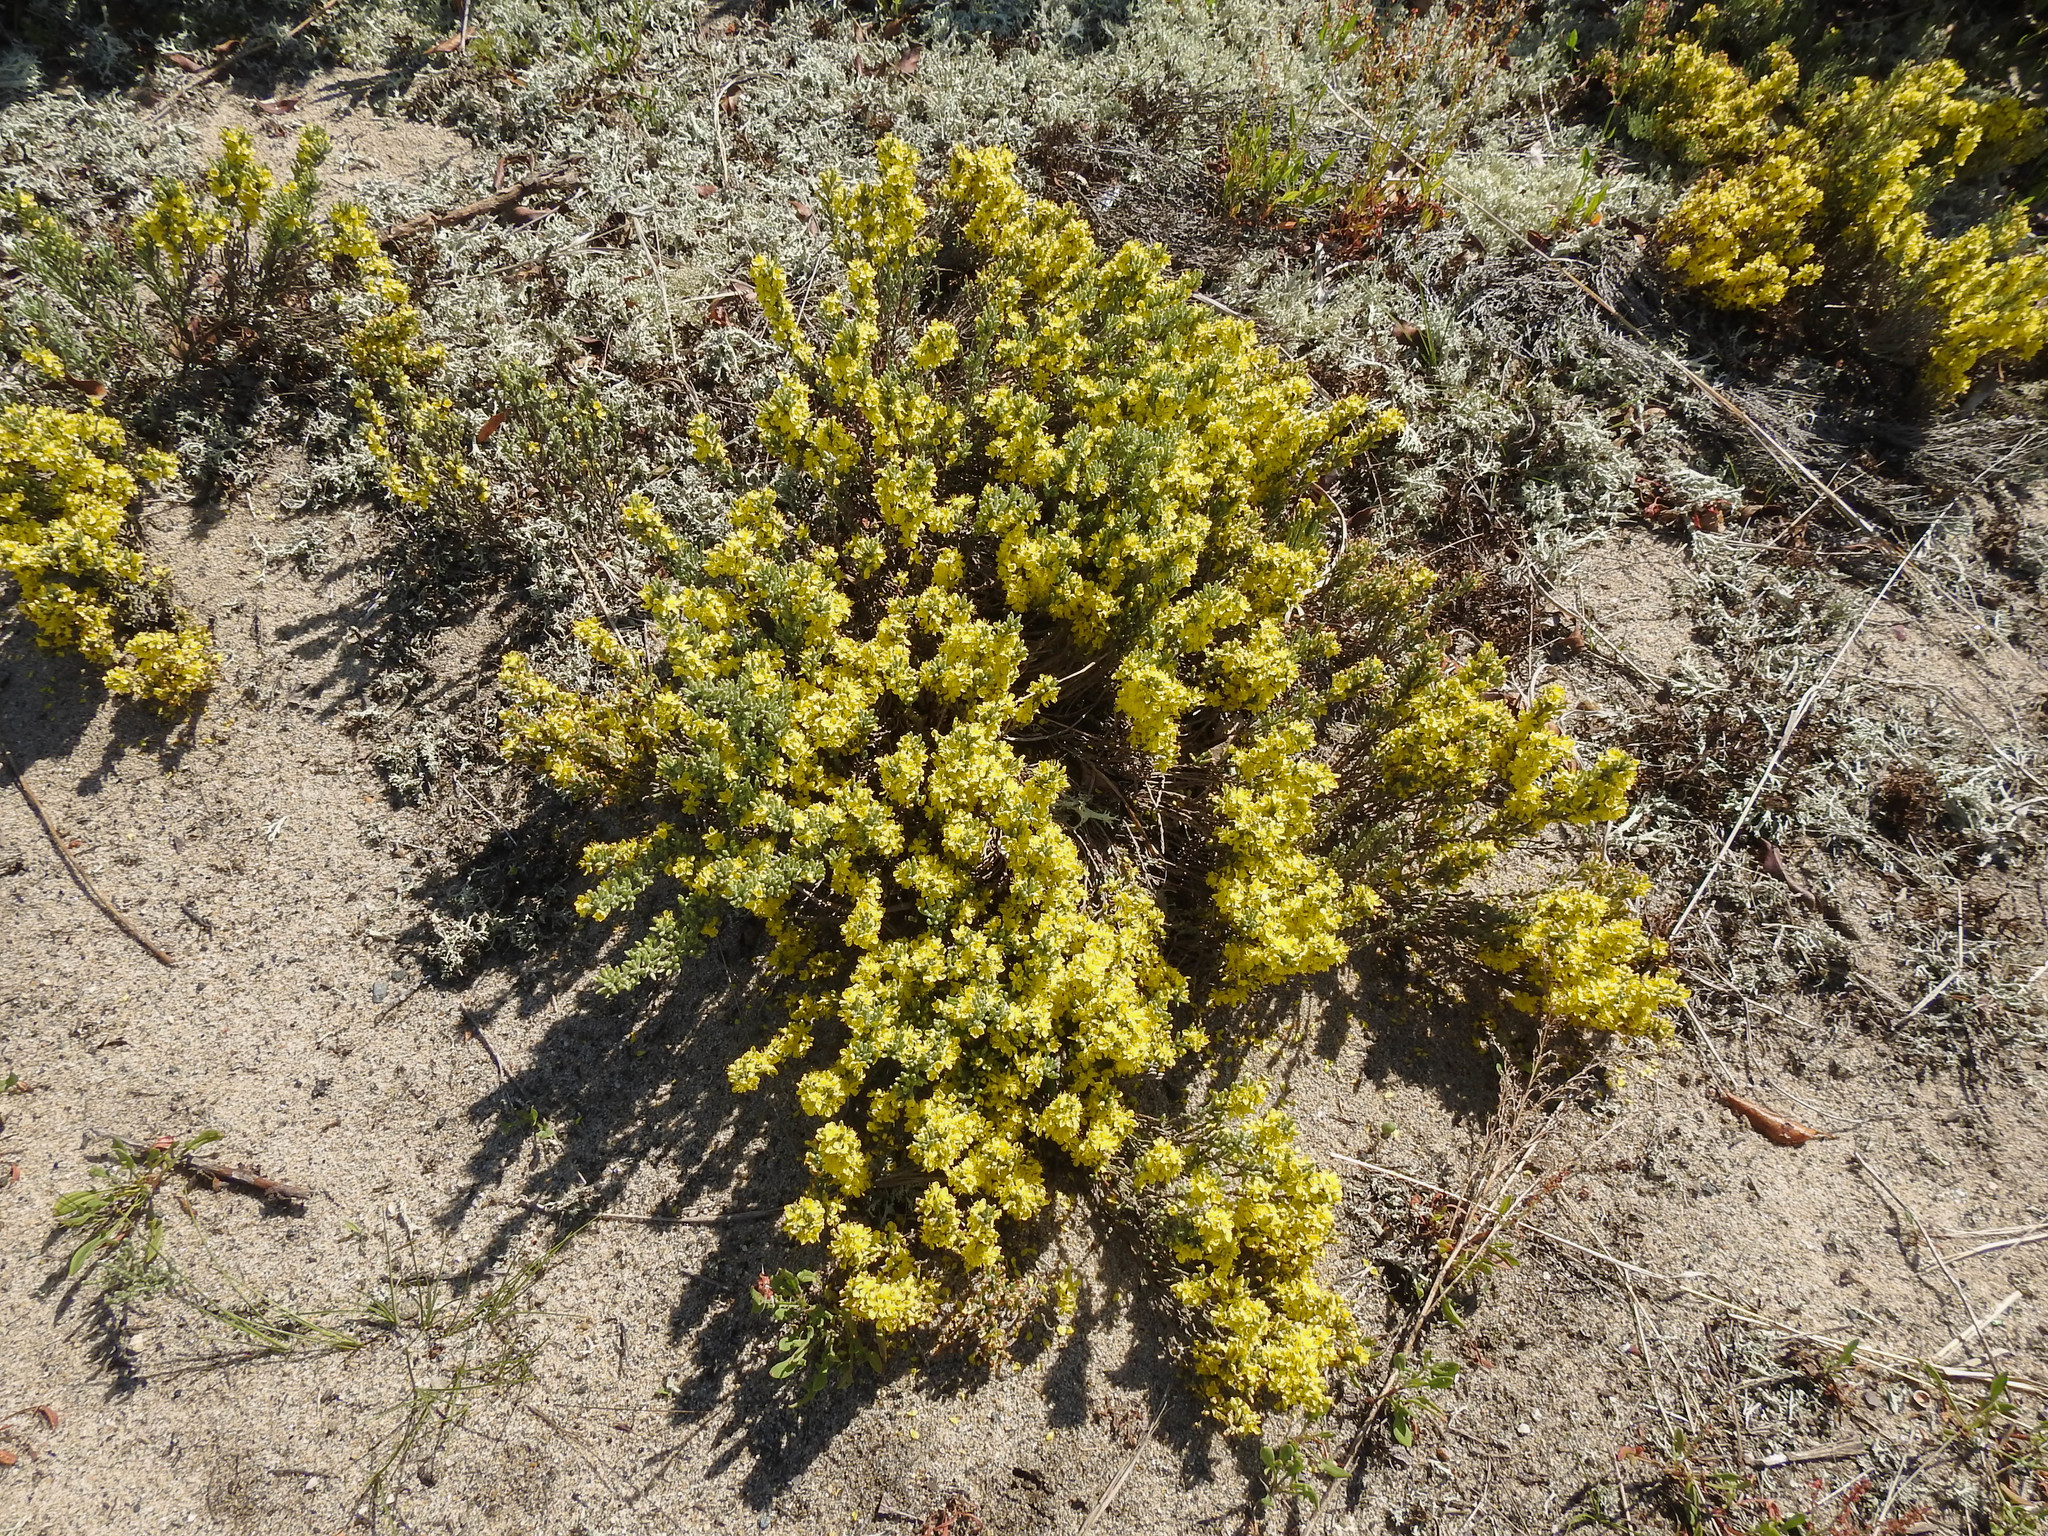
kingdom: Plantae
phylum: Tracheophyta
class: Magnoliopsida
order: Malvales
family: Cistaceae
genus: Hudsonia
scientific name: Hudsonia tomentosa
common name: Beach-heath
